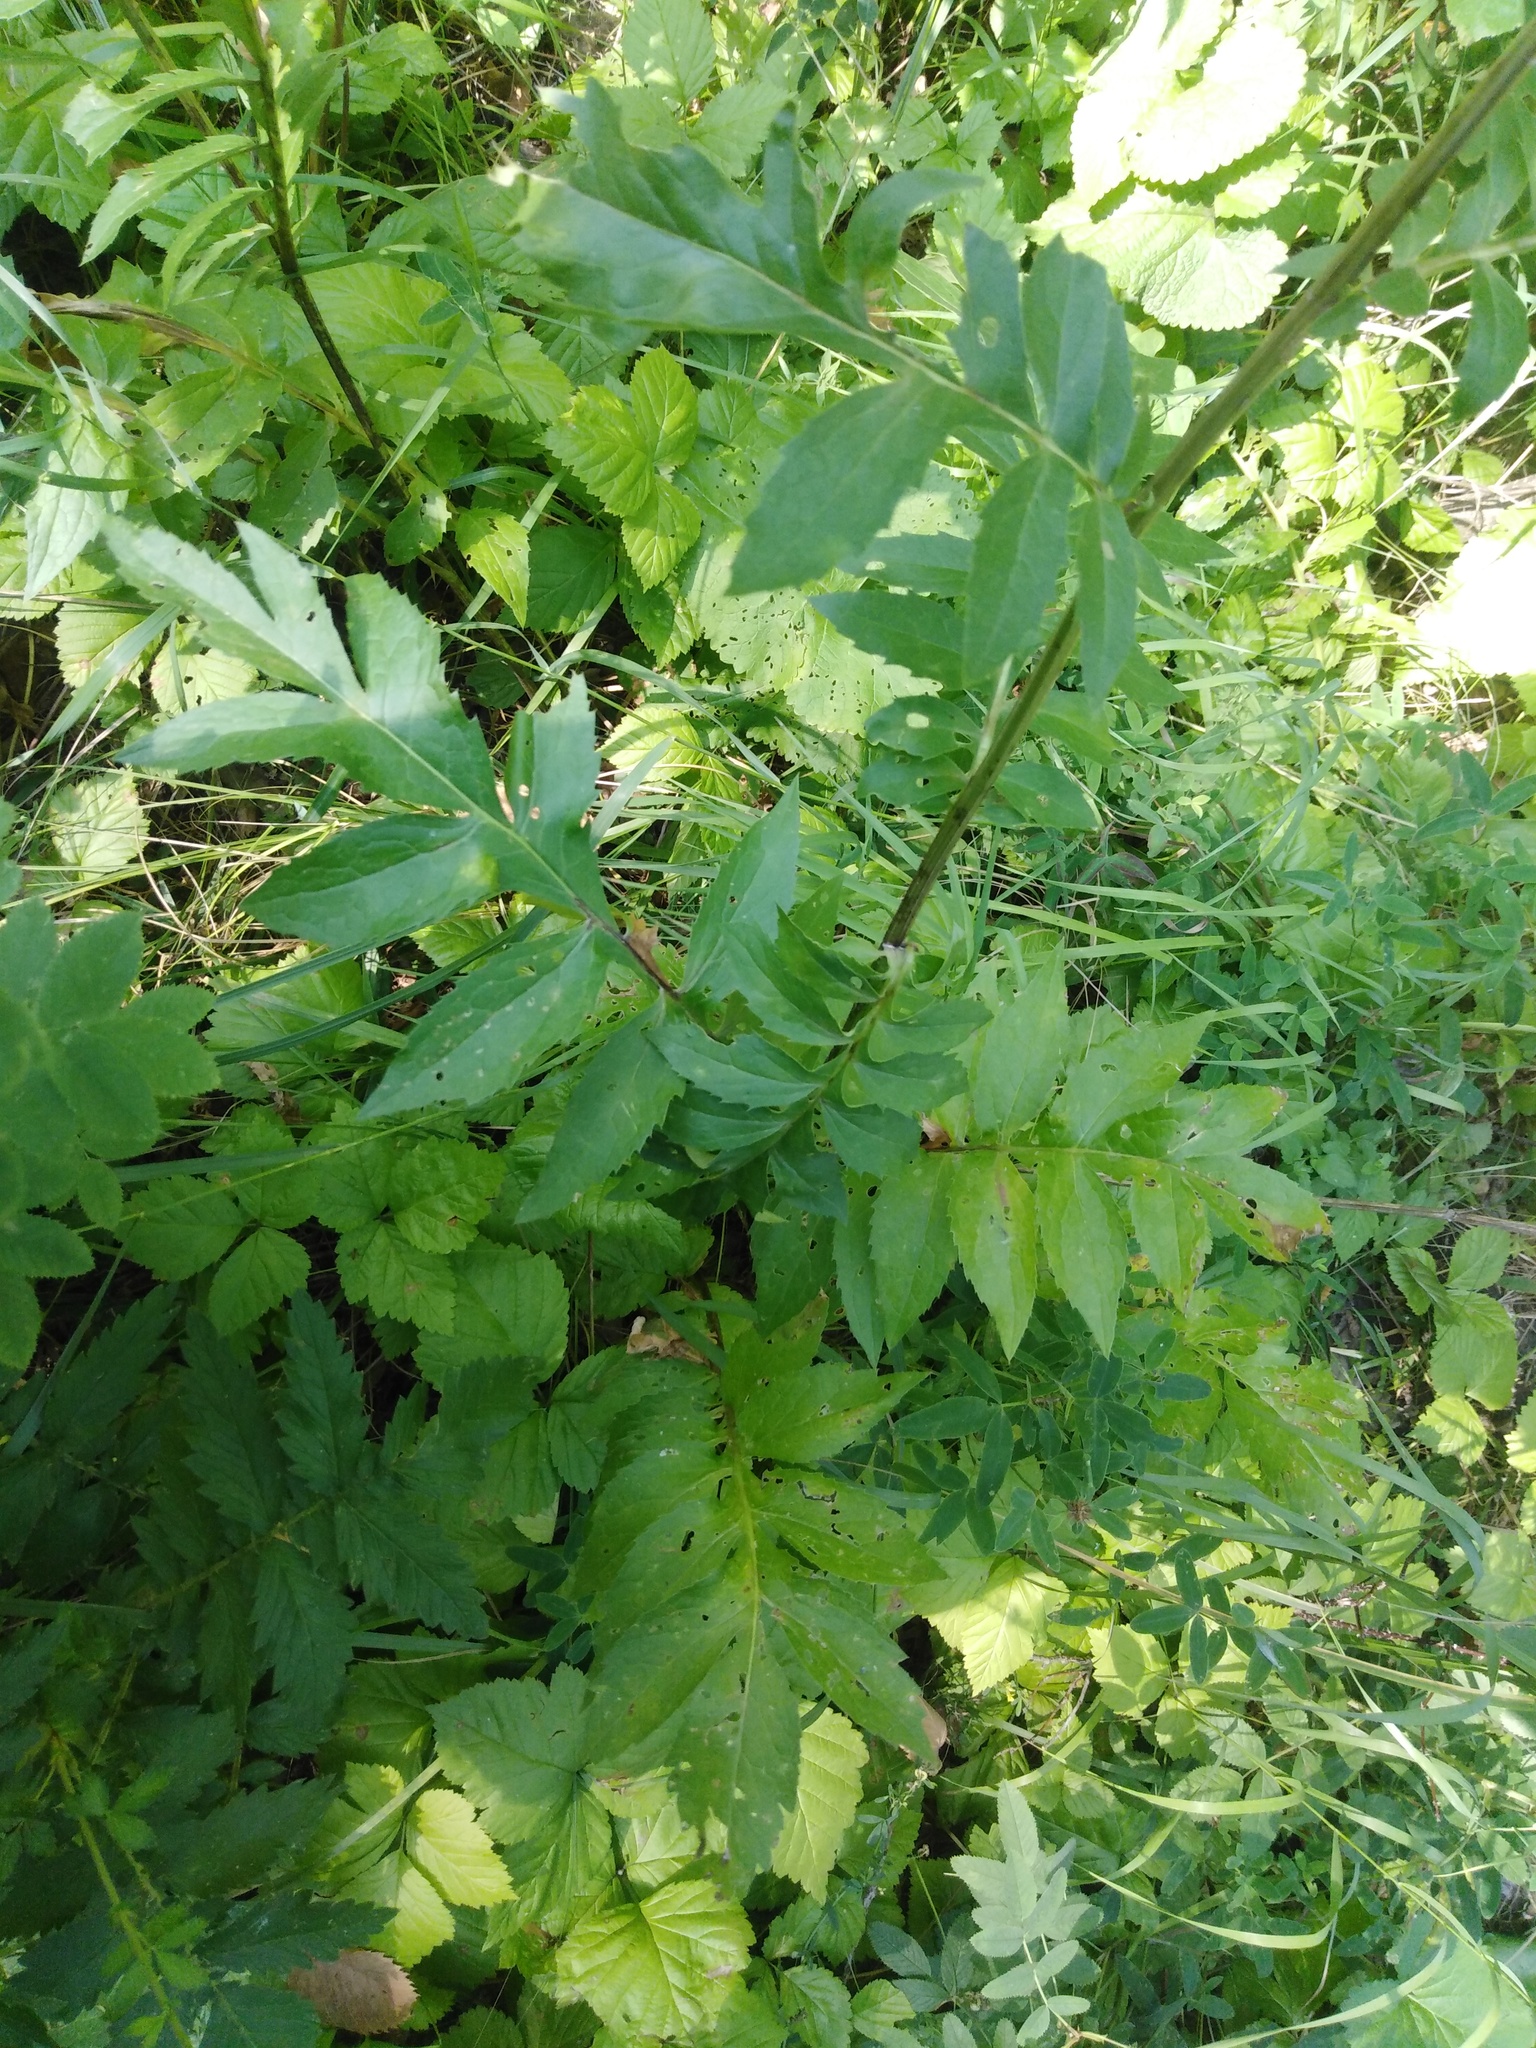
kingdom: Plantae
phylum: Tracheophyta
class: Magnoliopsida
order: Asterales
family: Asteraceae
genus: Serratula
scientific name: Serratula coronata
